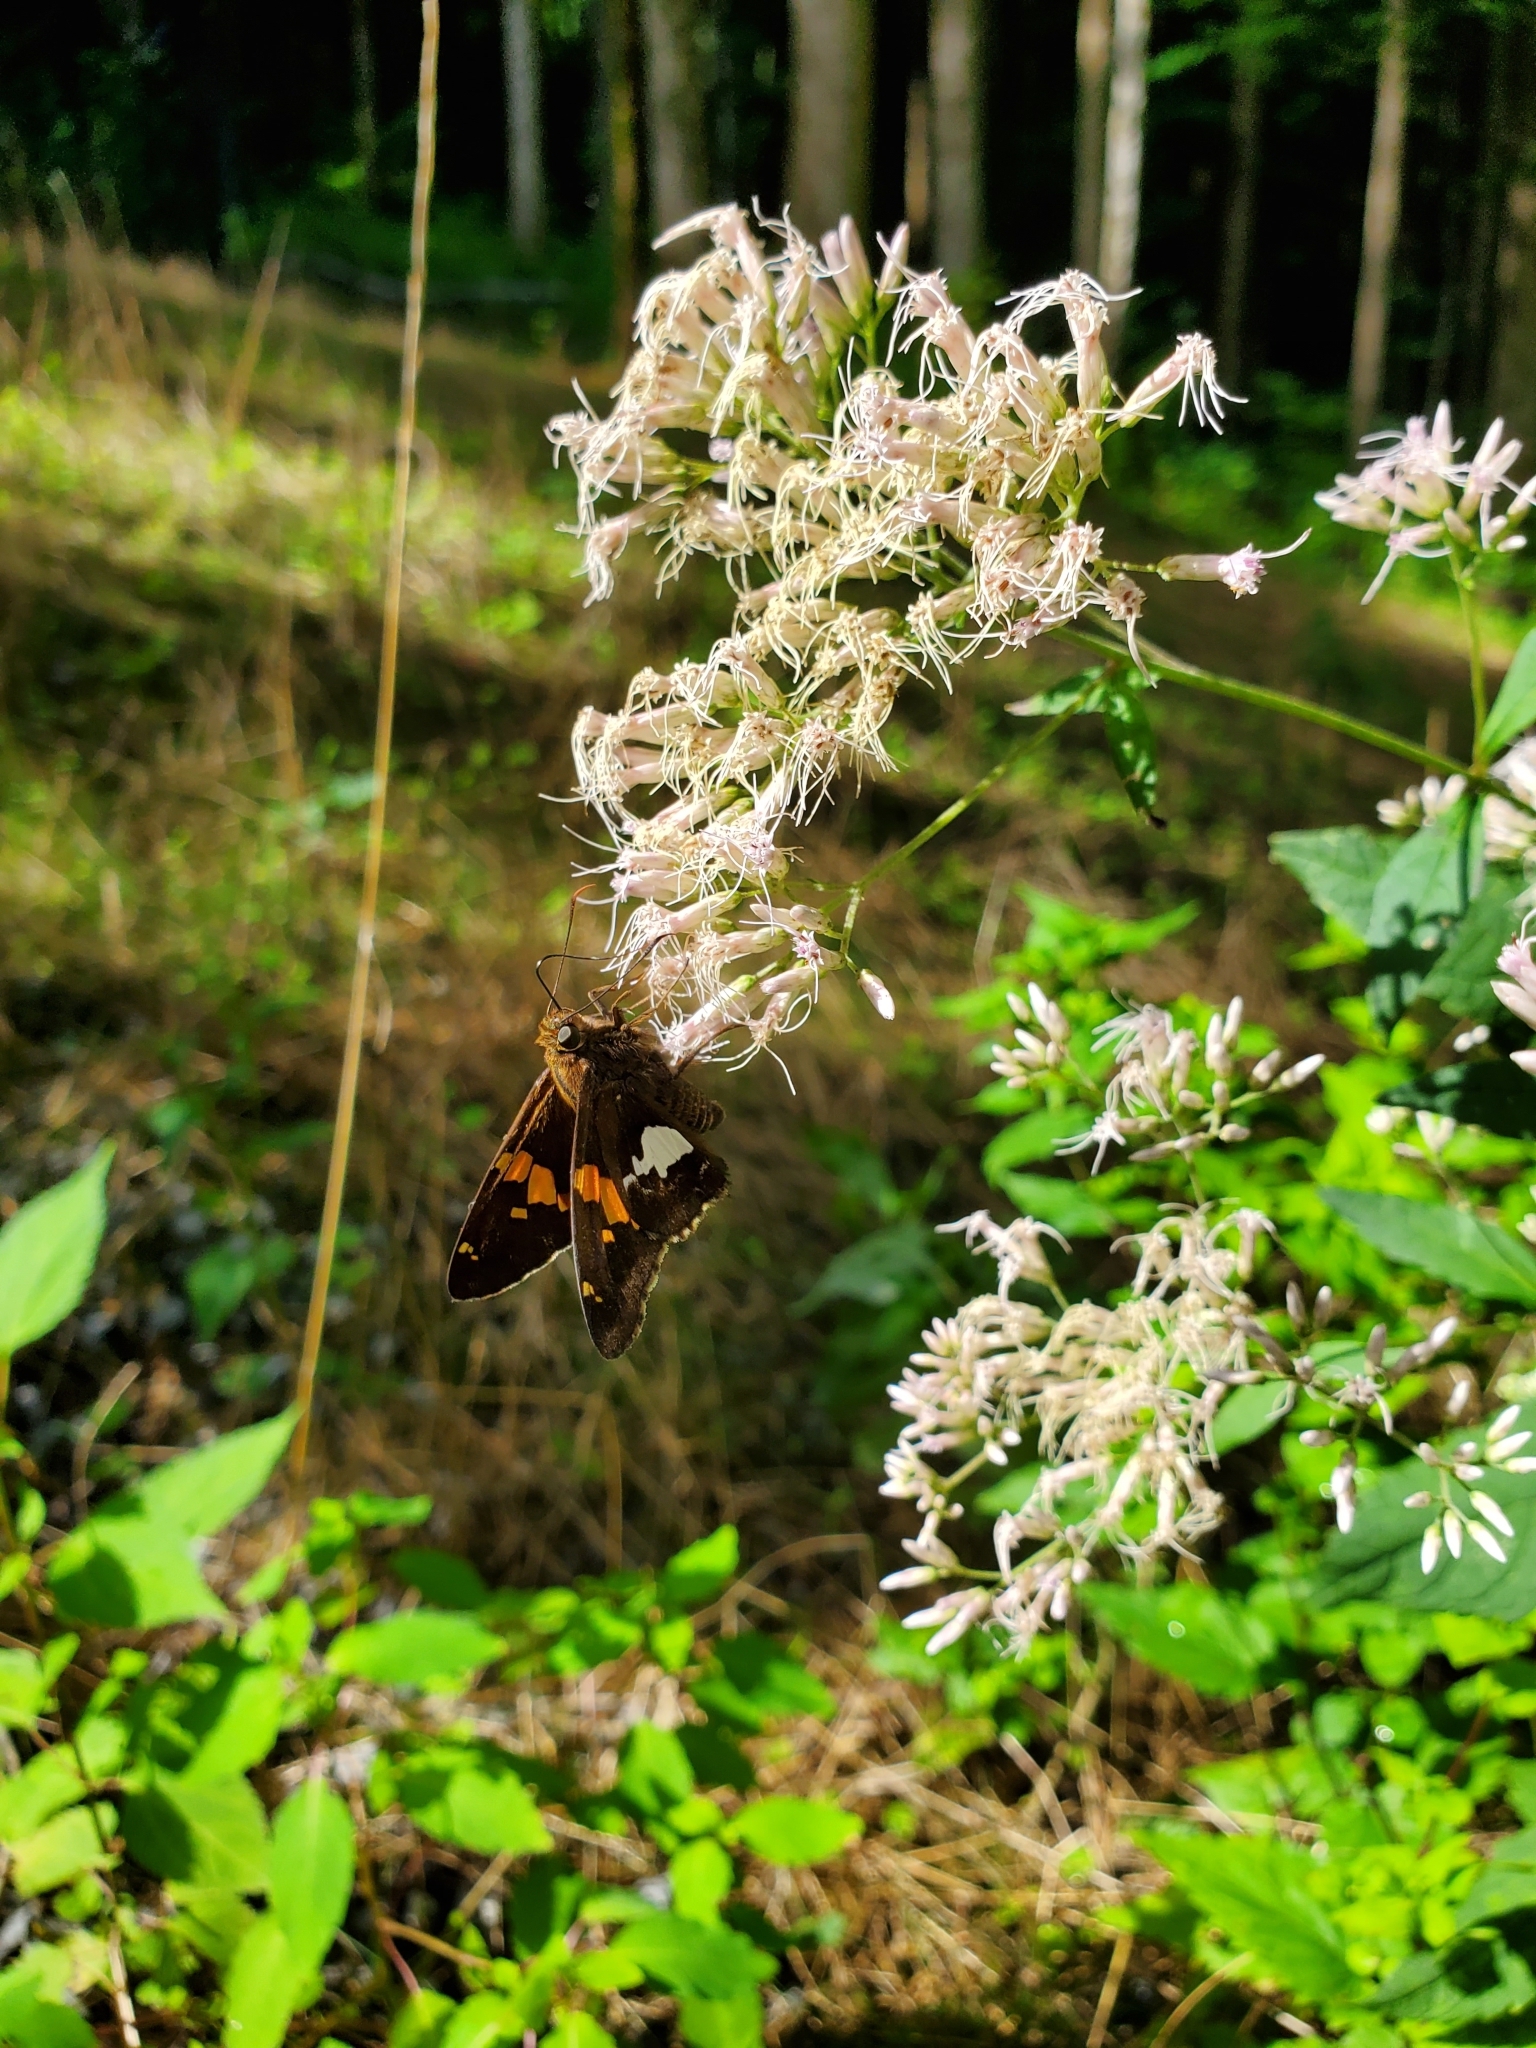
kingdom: Animalia
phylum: Arthropoda
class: Insecta
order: Lepidoptera
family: Hesperiidae
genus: Epargyreus
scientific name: Epargyreus clarus
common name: Silver-spotted skipper
